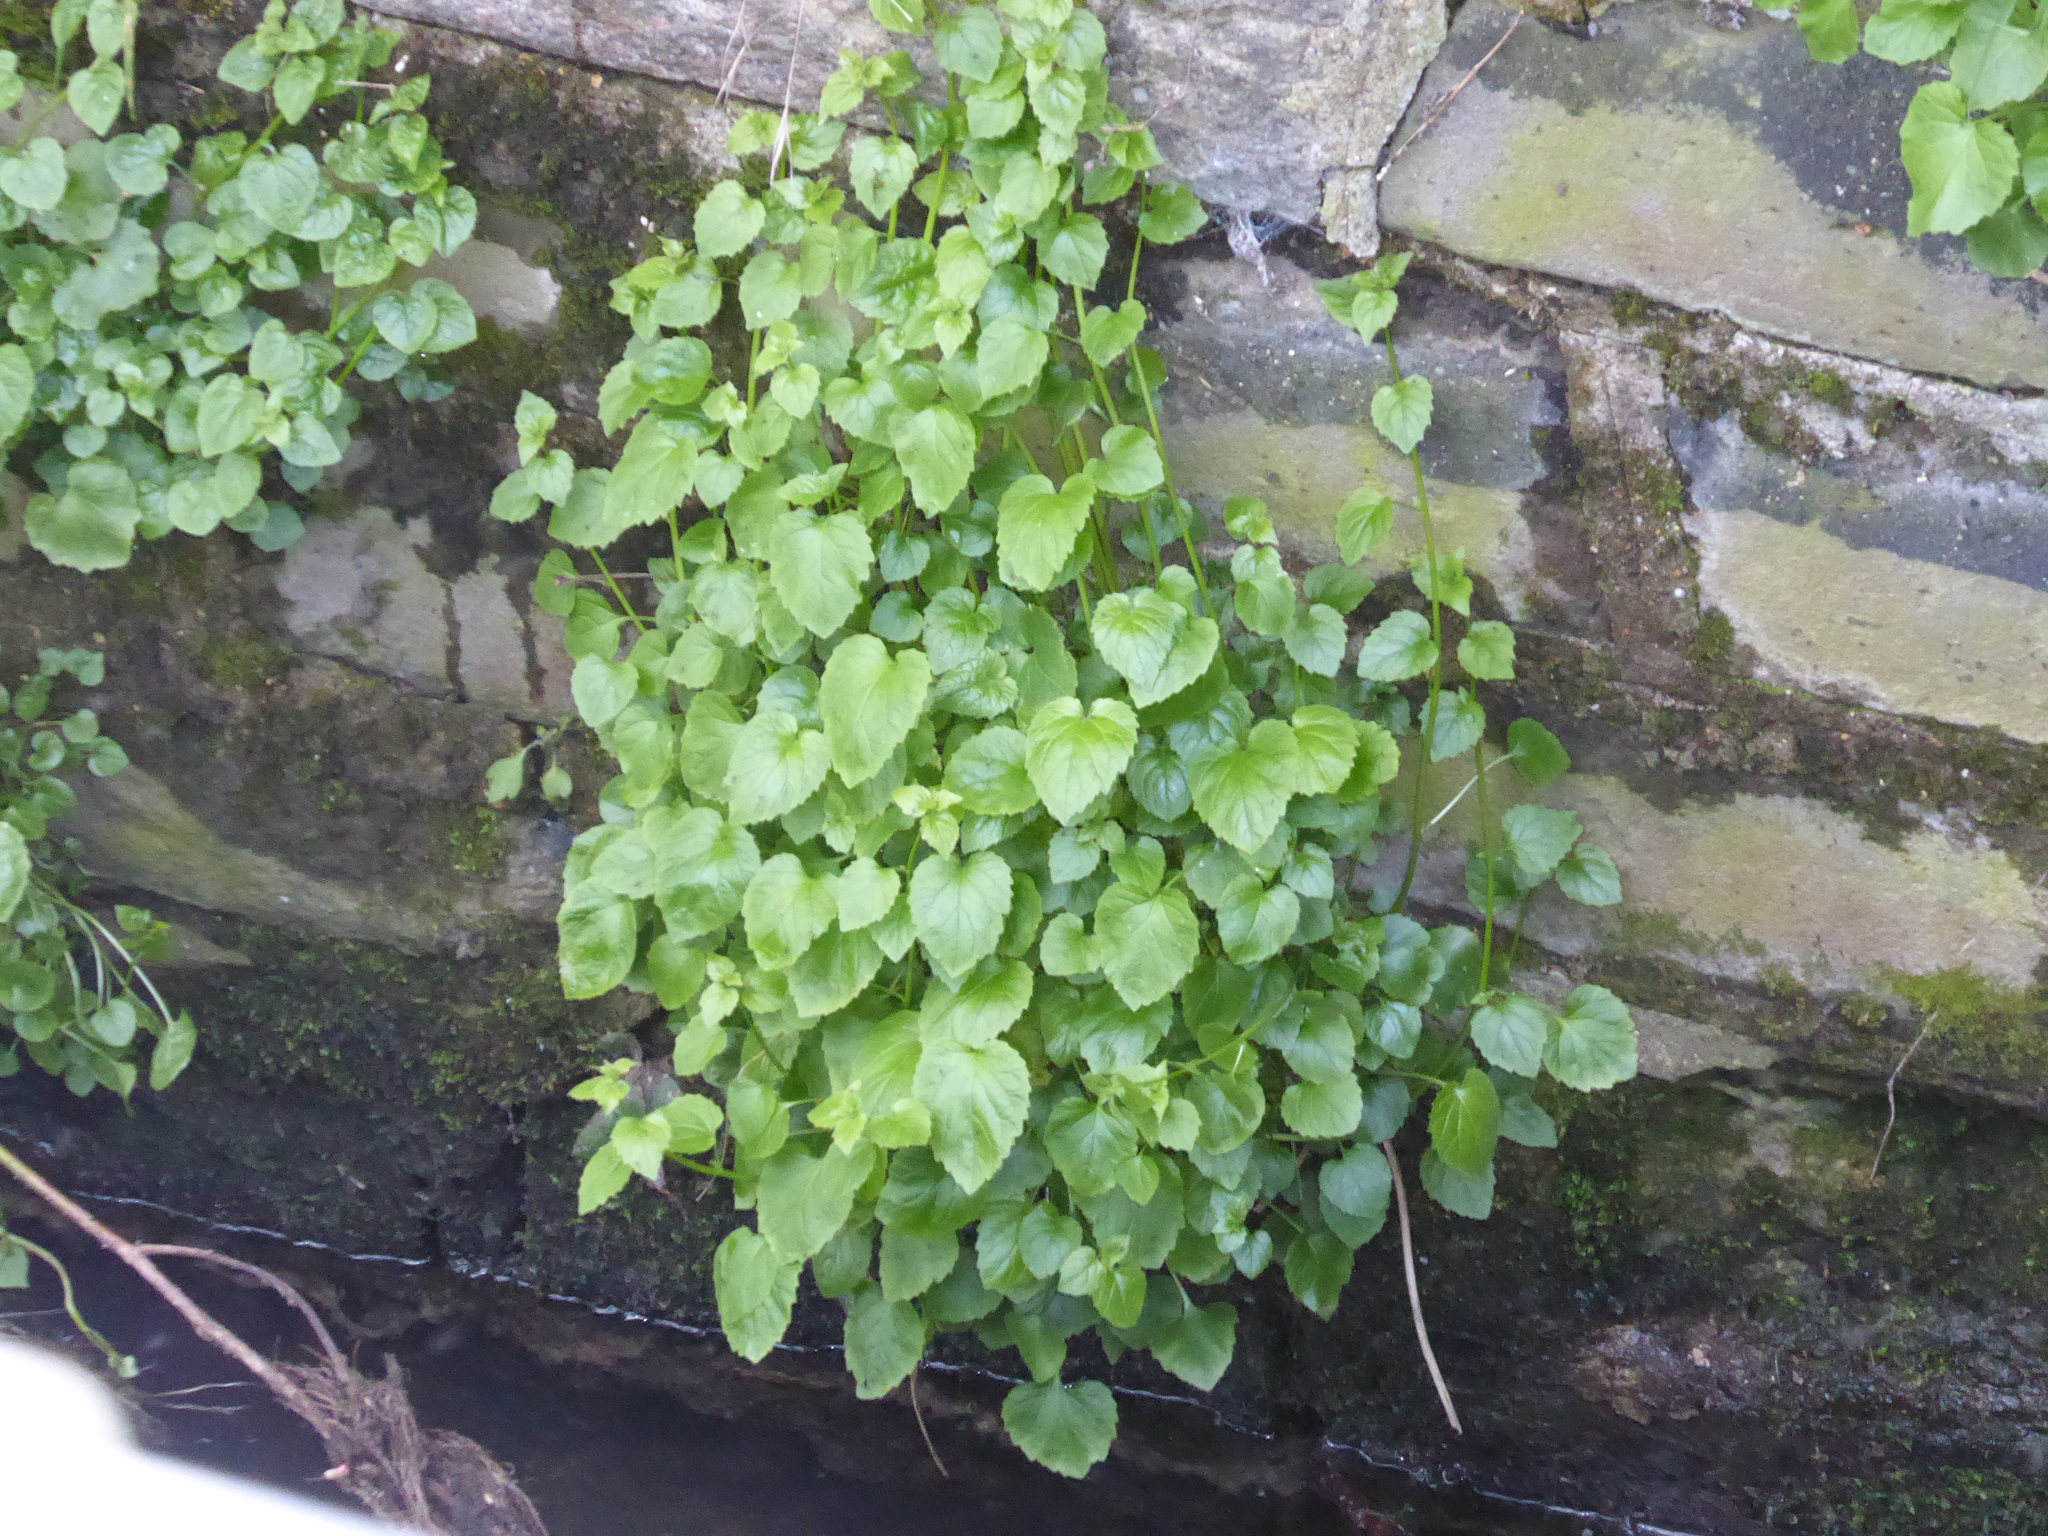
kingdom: Plantae
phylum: Tracheophyta
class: Magnoliopsida
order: Asterales
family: Campanulaceae
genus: Campanula
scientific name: Campanula poscharskyana
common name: Trailing bellflower
